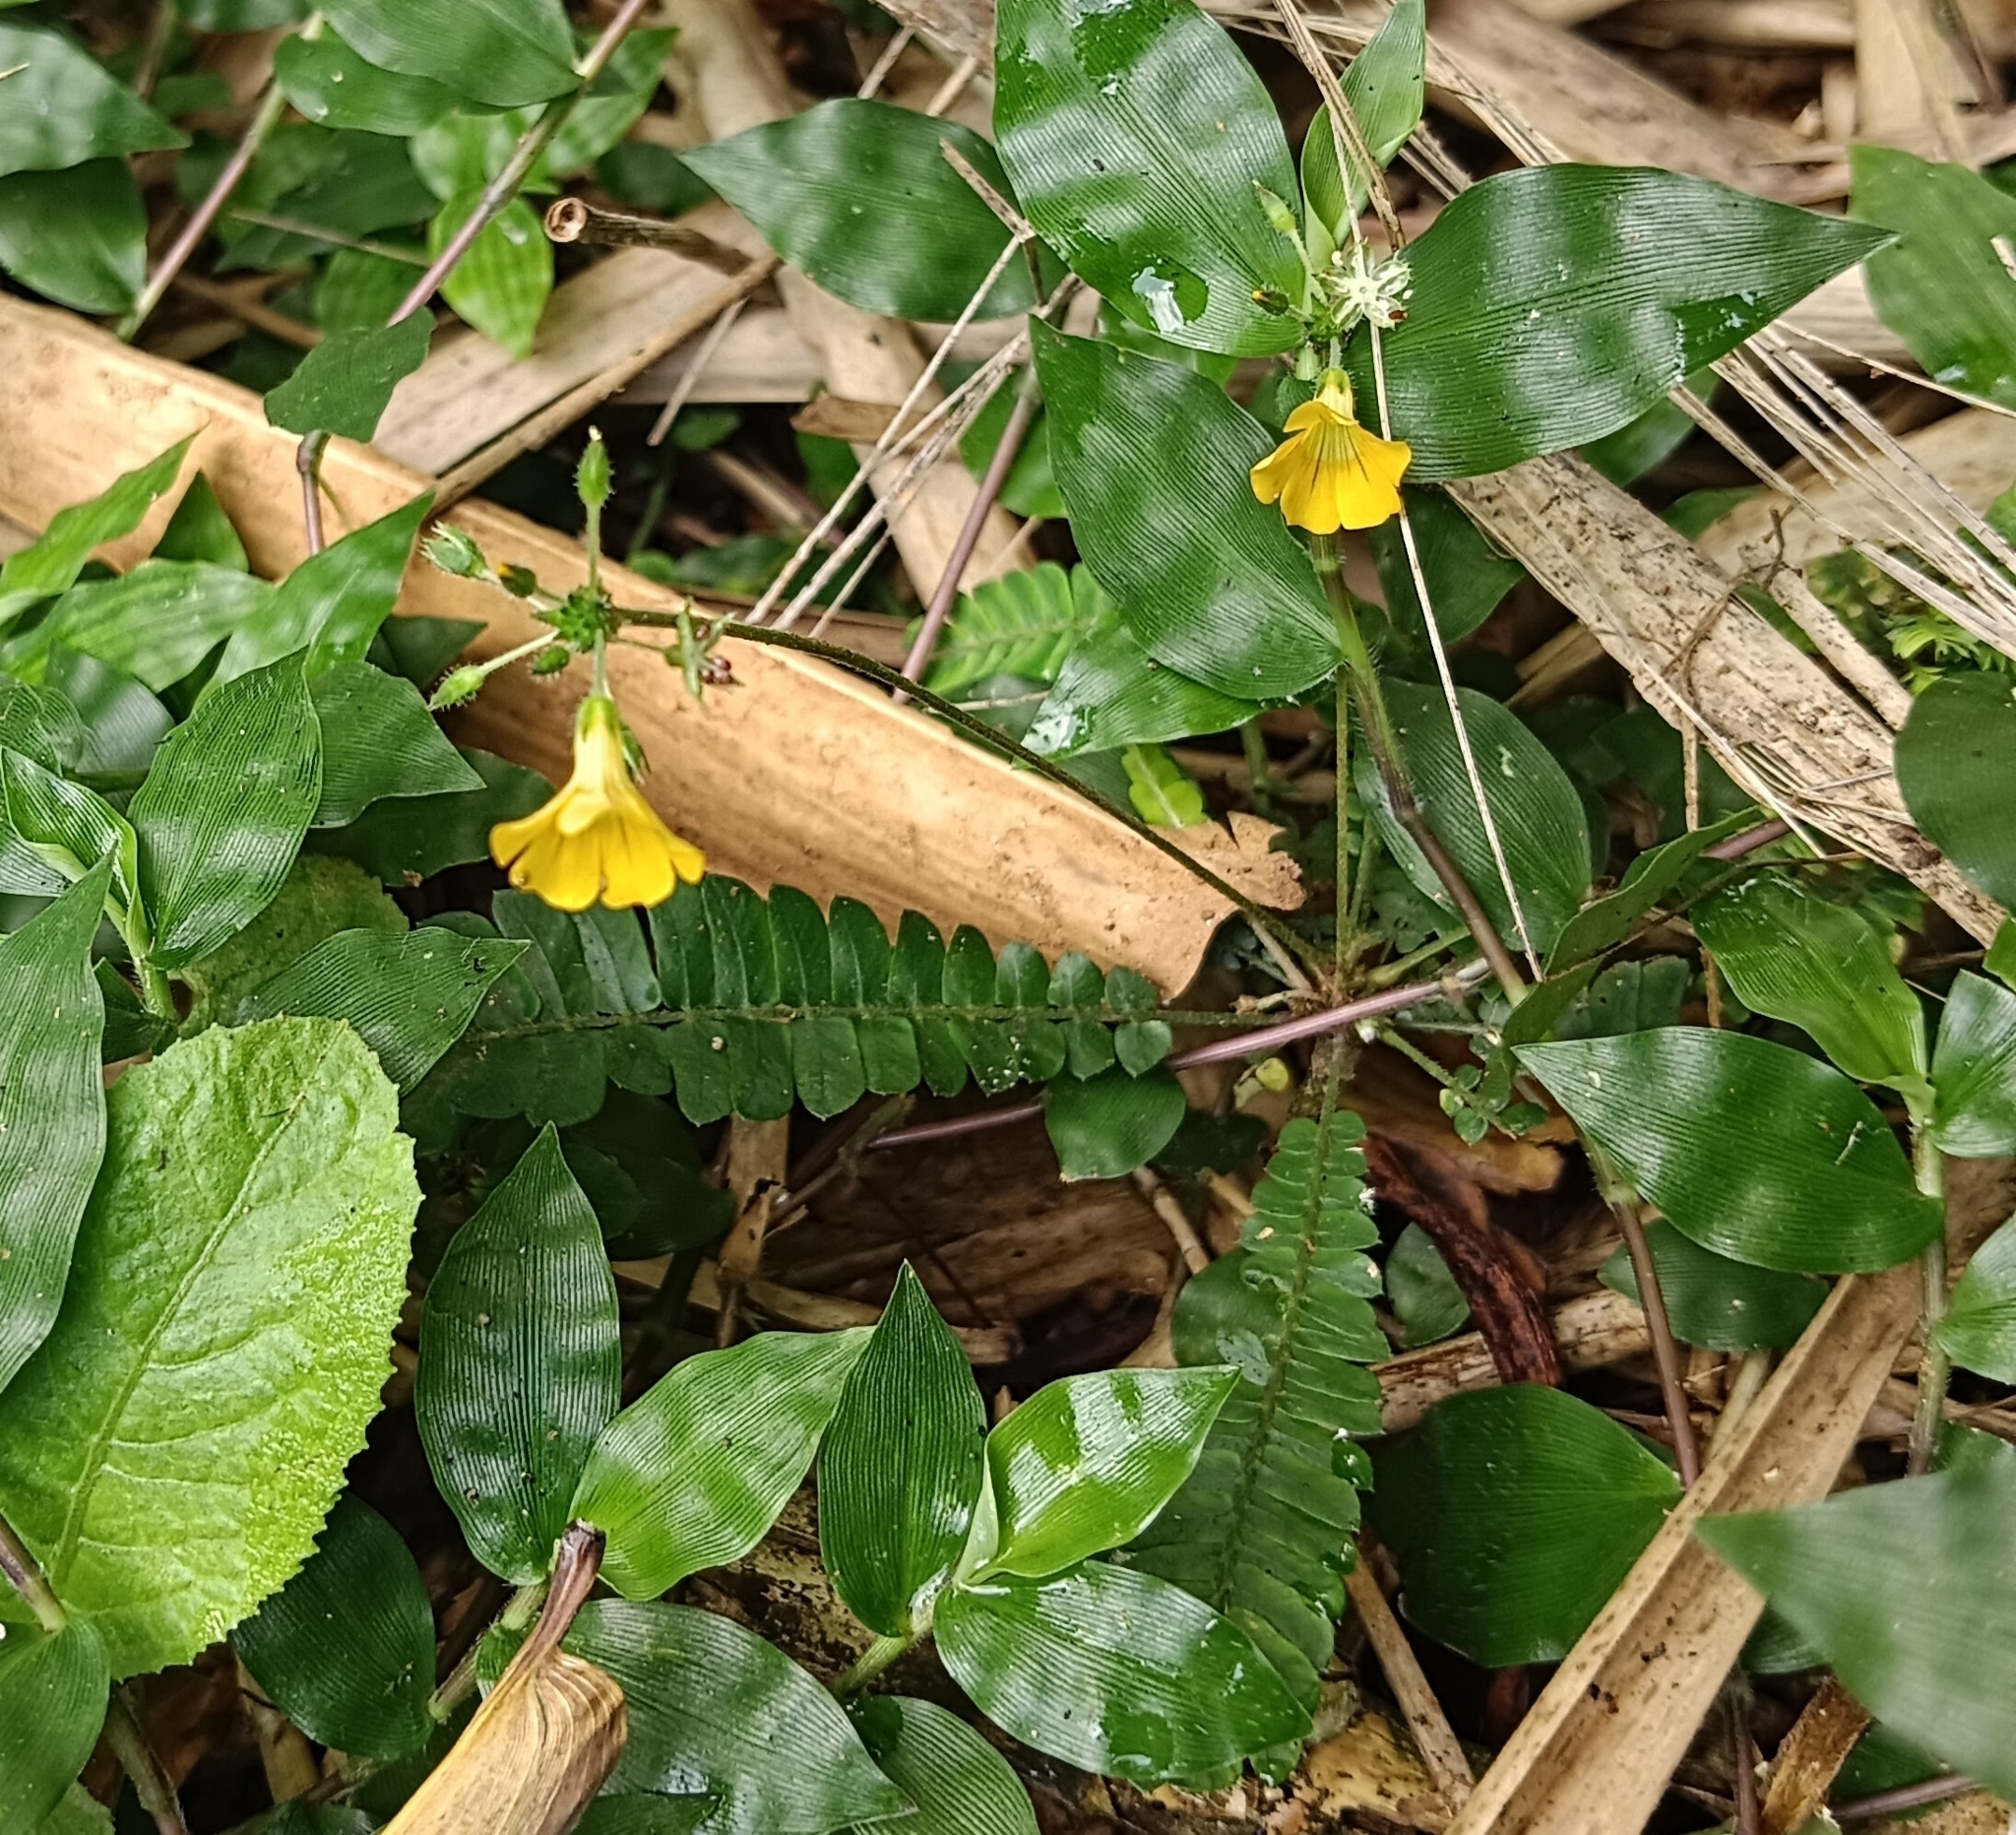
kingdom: Plantae
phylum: Tracheophyta
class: Magnoliopsida
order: Oxalidales
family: Oxalidaceae
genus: Biophytum
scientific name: Biophytum sensitivum
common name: Lifeplant
